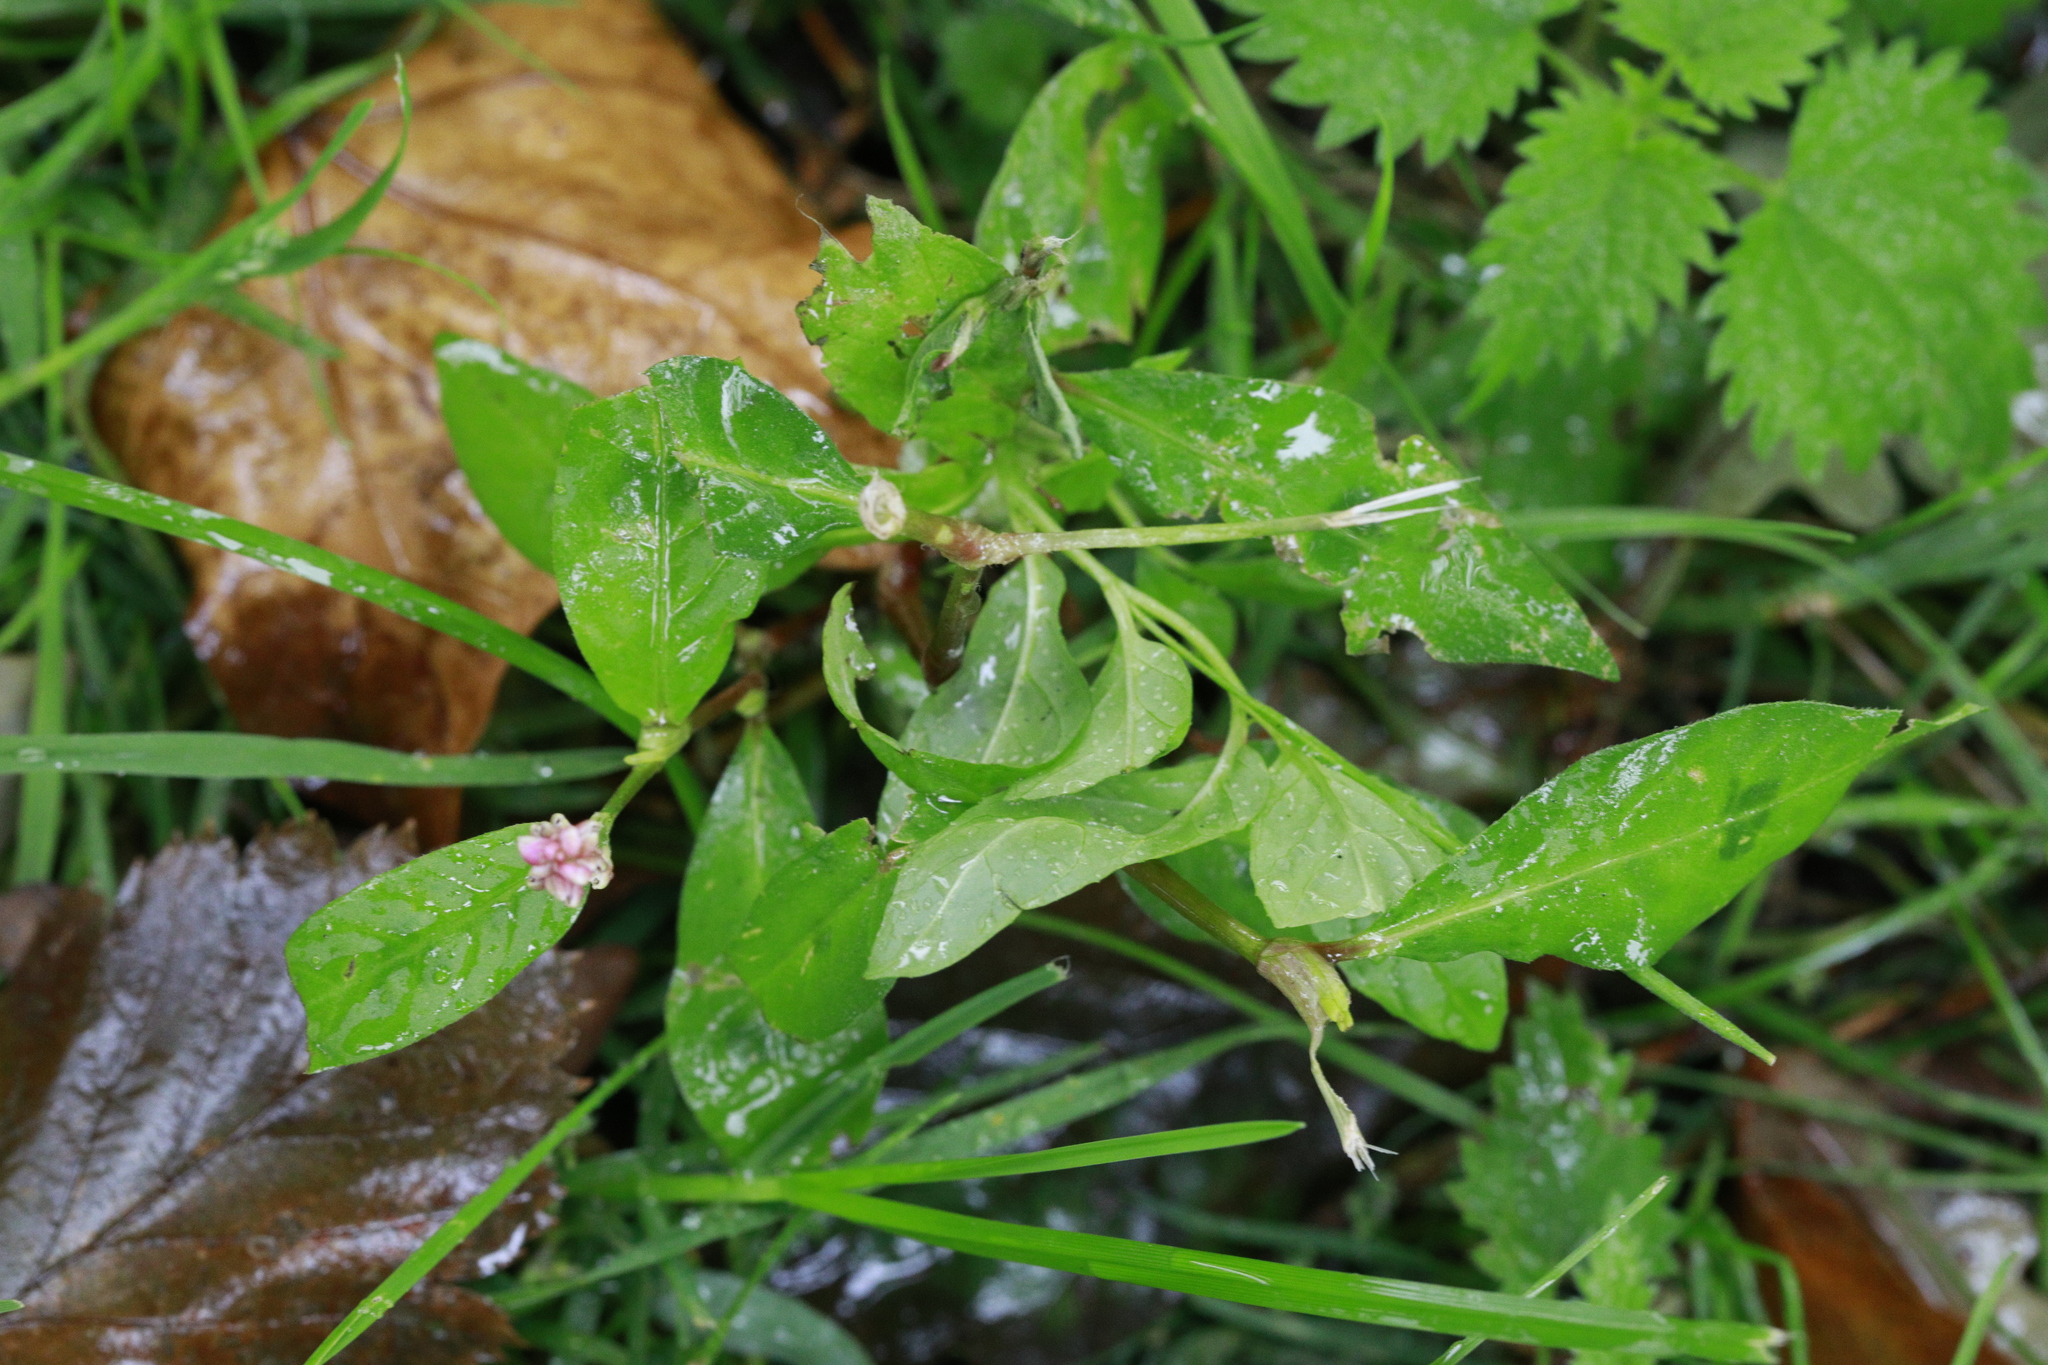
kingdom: Plantae
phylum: Tracheophyta
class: Magnoliopsida
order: Caryophyllales
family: Polygonaceae
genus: Persicaria
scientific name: Persicaria maculosa
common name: Redshank
